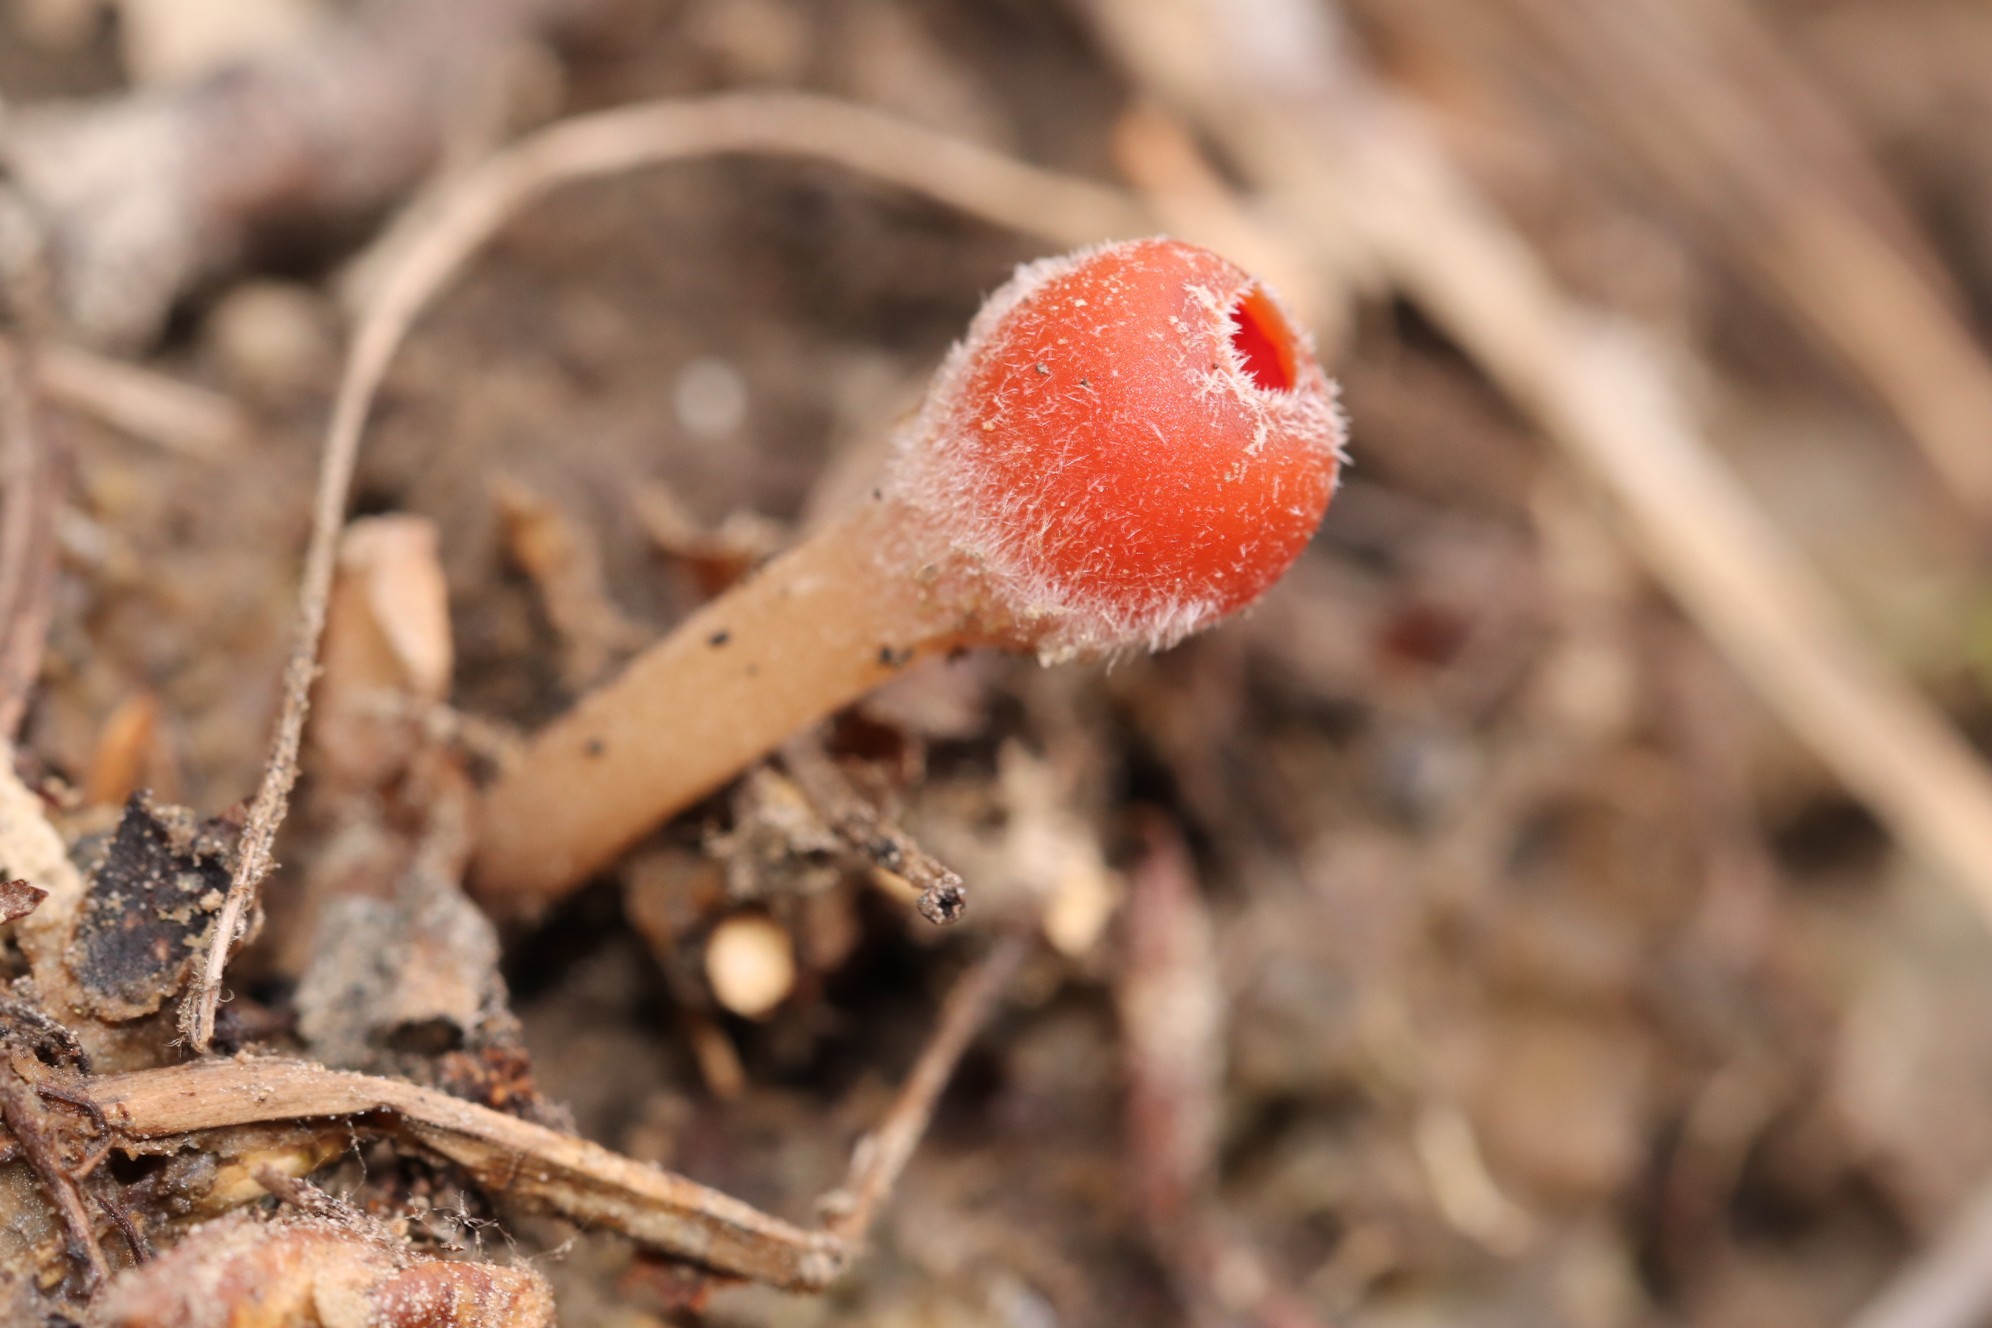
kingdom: Fungi
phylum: Ascomycota
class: Pezizomycetes
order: Pezizales
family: Sarcoscyphaceae
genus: Microstoma
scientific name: Microstoma protractum
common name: Rosy goblet
